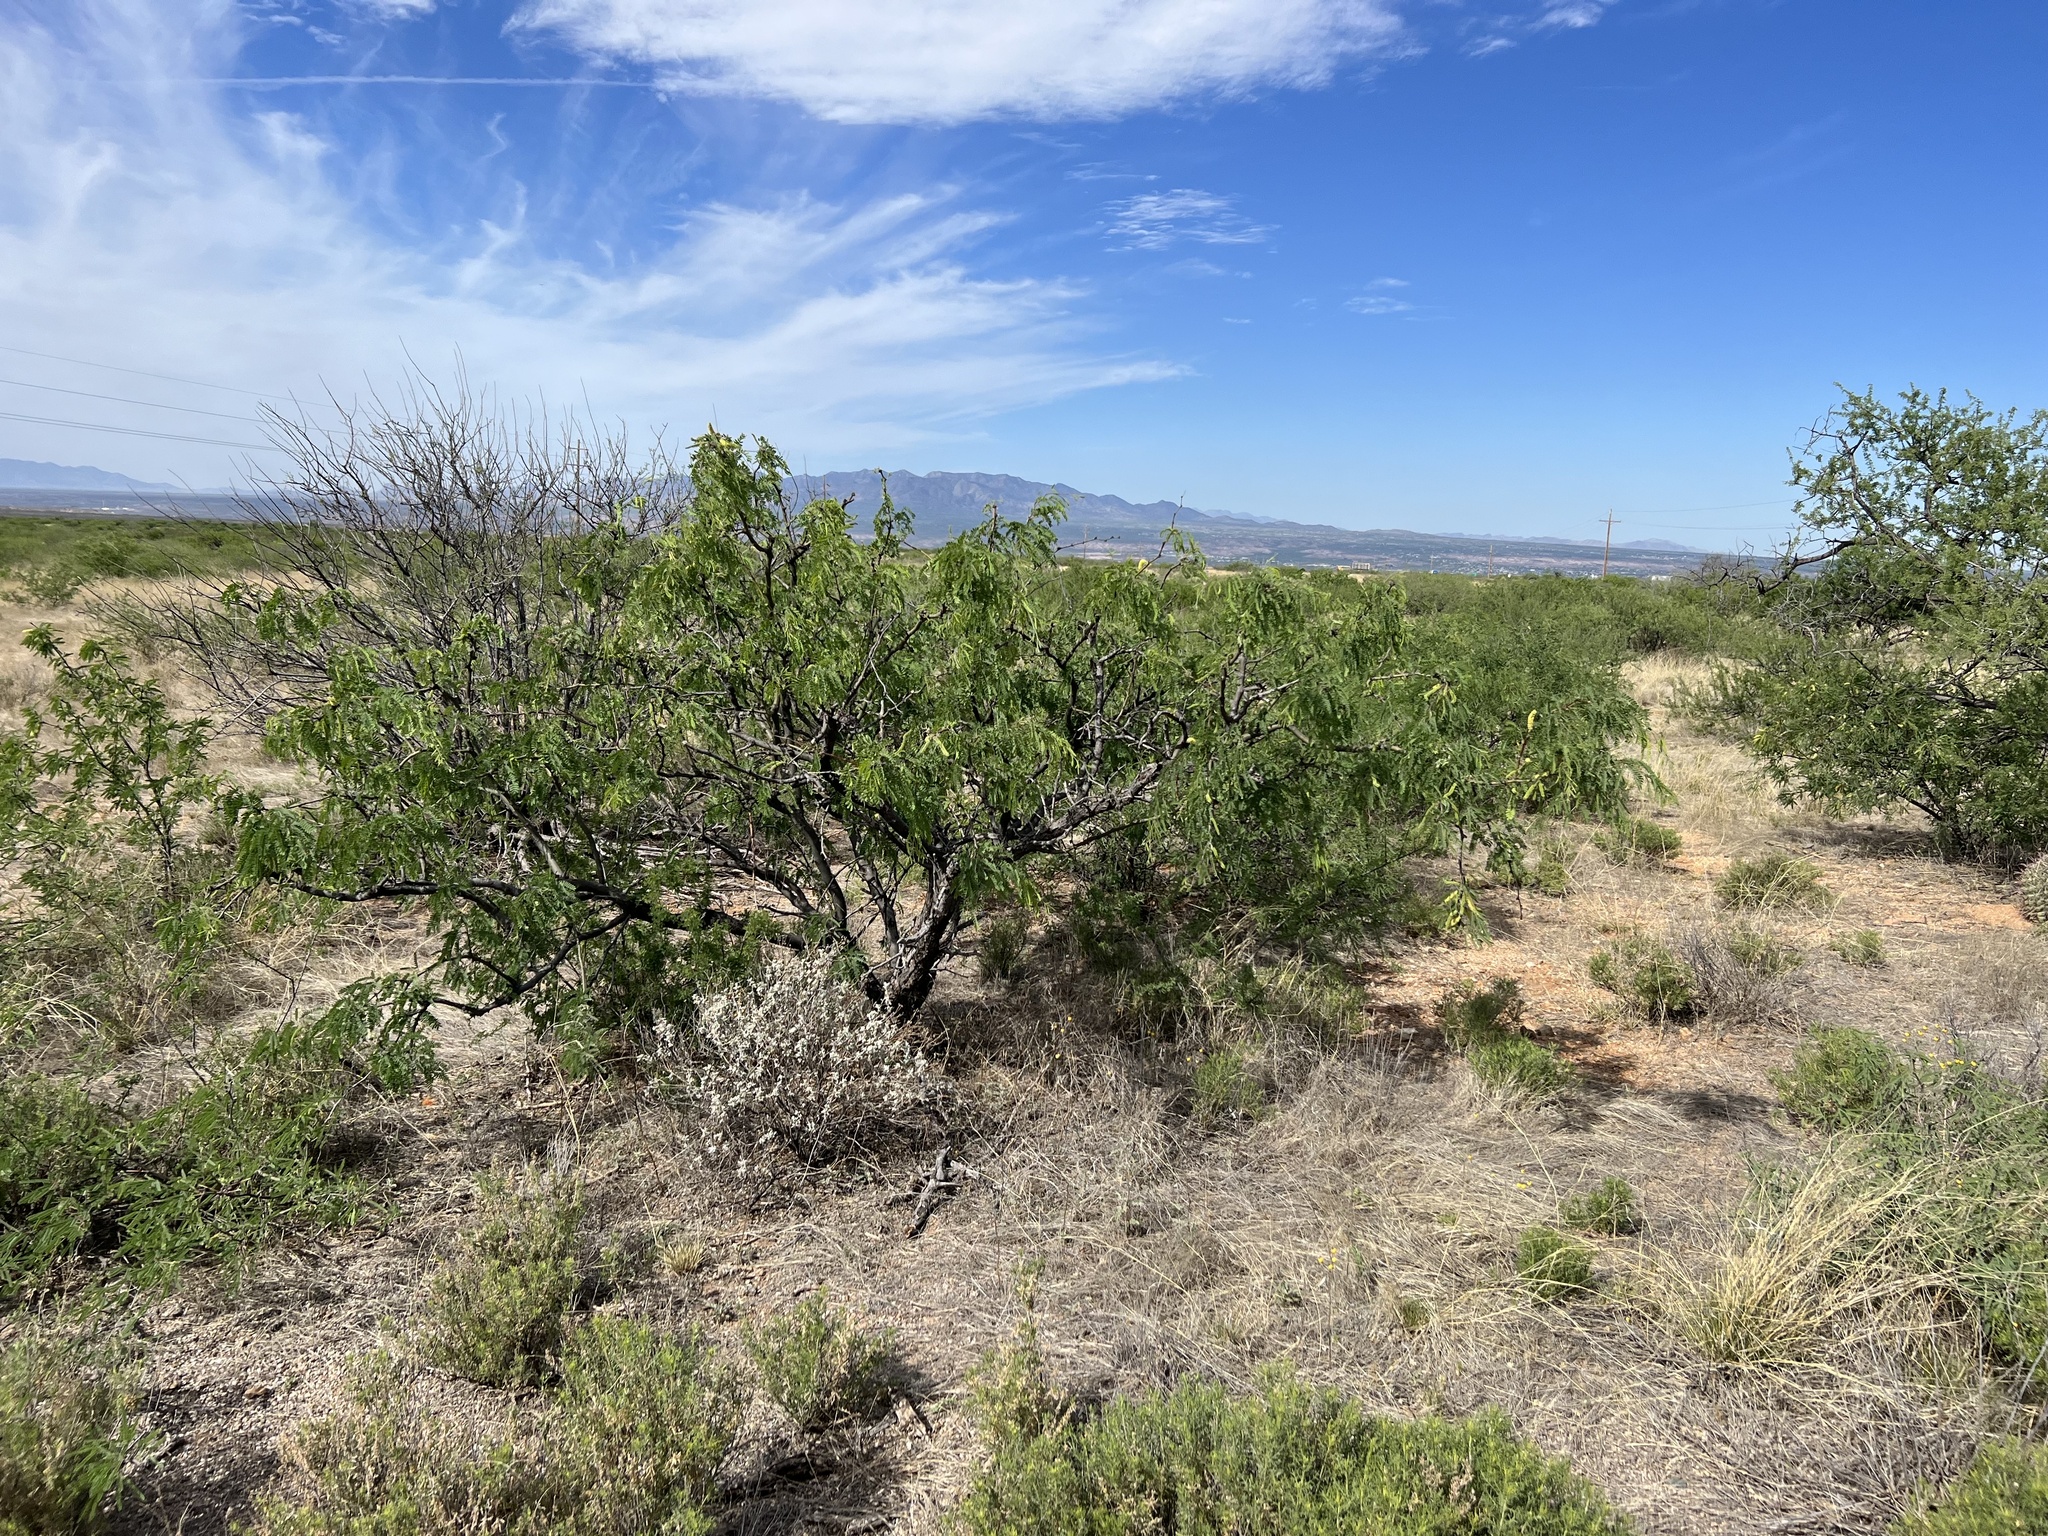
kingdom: Plantae
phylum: Tracheophyta
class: Magnoliopsida
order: Fabales
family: Fabaceae
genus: Prosopis
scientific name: Prosopis velutina
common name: Velvet mesquite
